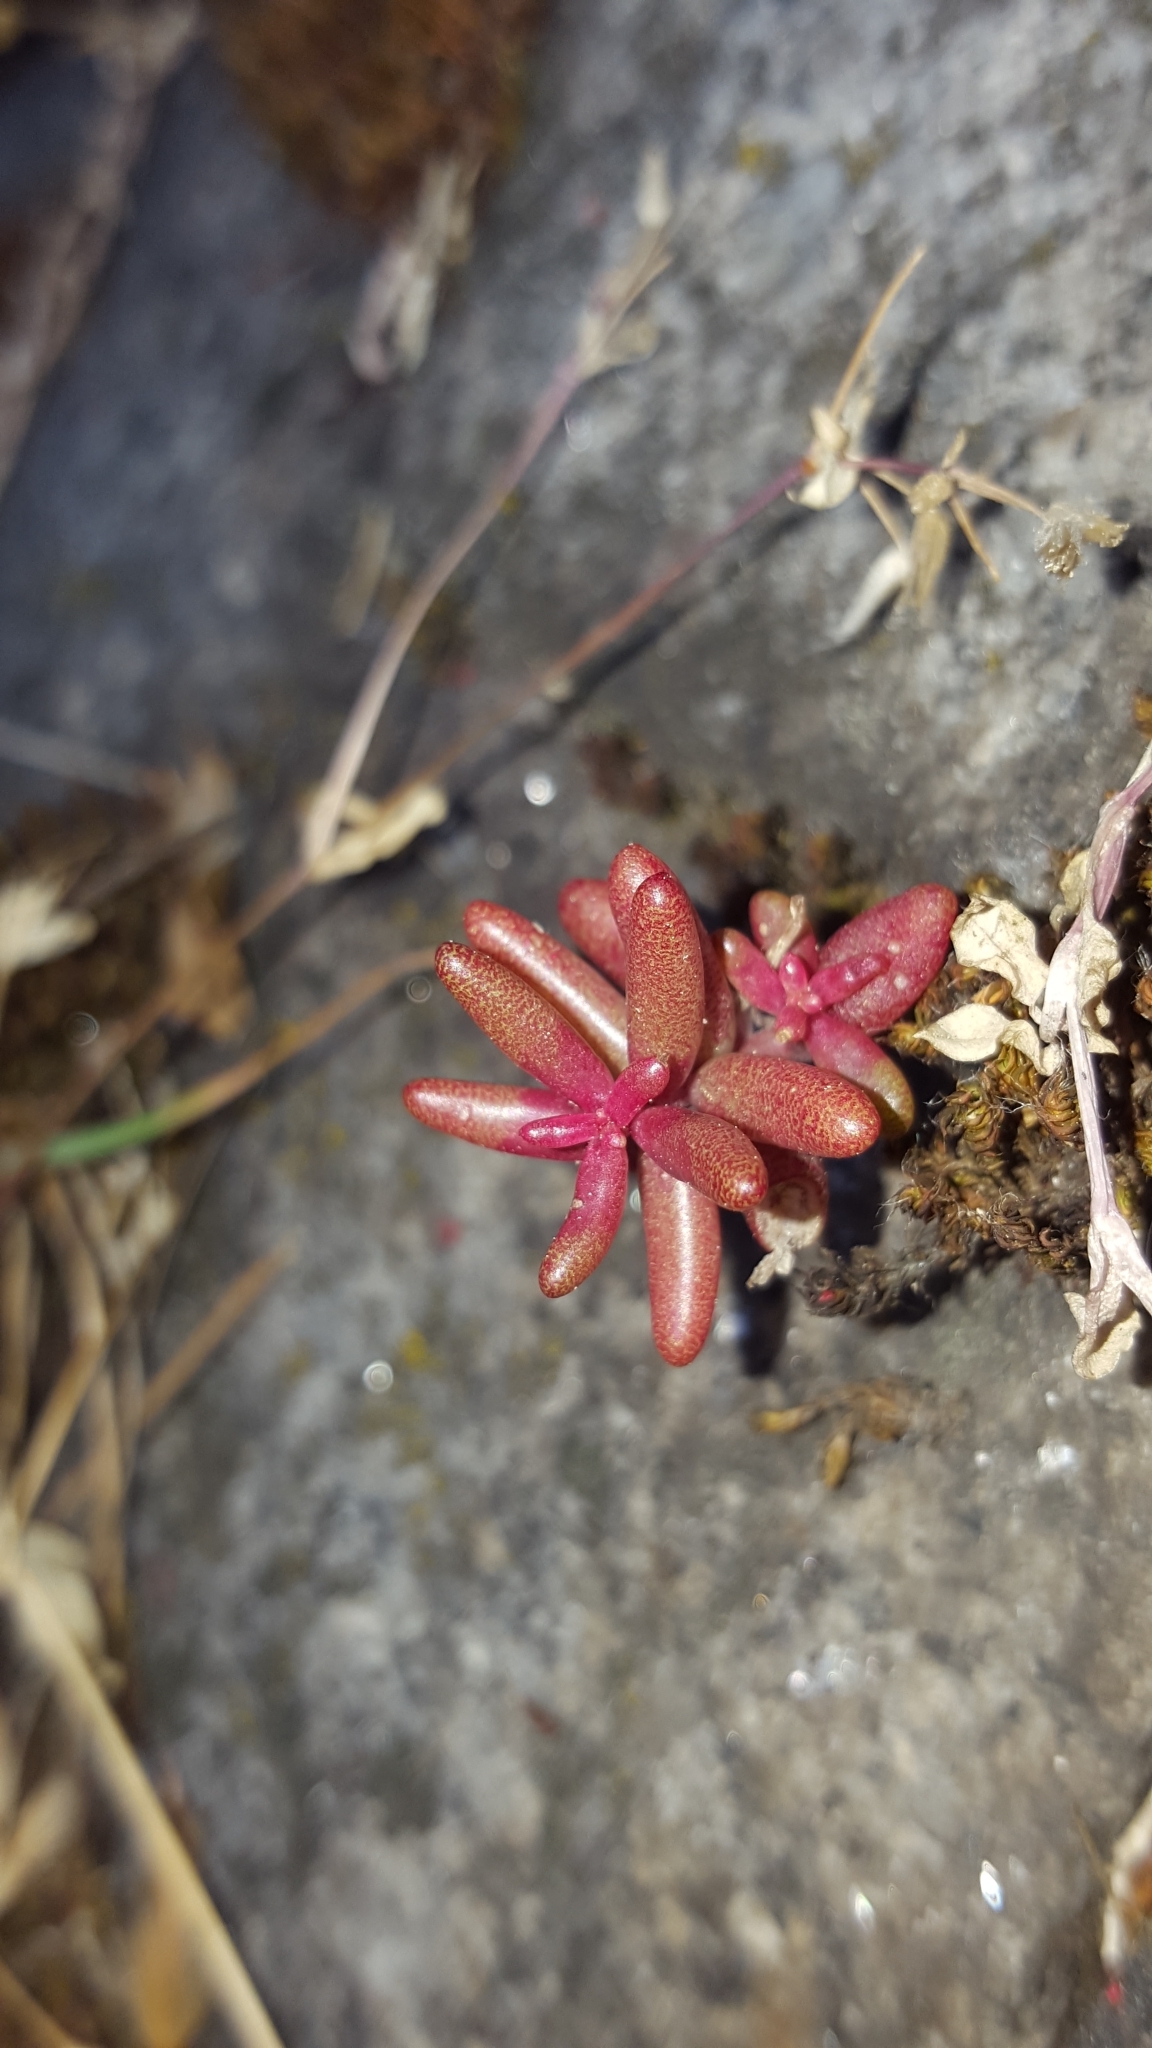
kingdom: Plantae
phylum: Tracheophyta
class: Magnoliopsida
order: Saxifragales
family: Crassulaceae
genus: Sedum
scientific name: Sedum album
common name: White stonecrop
